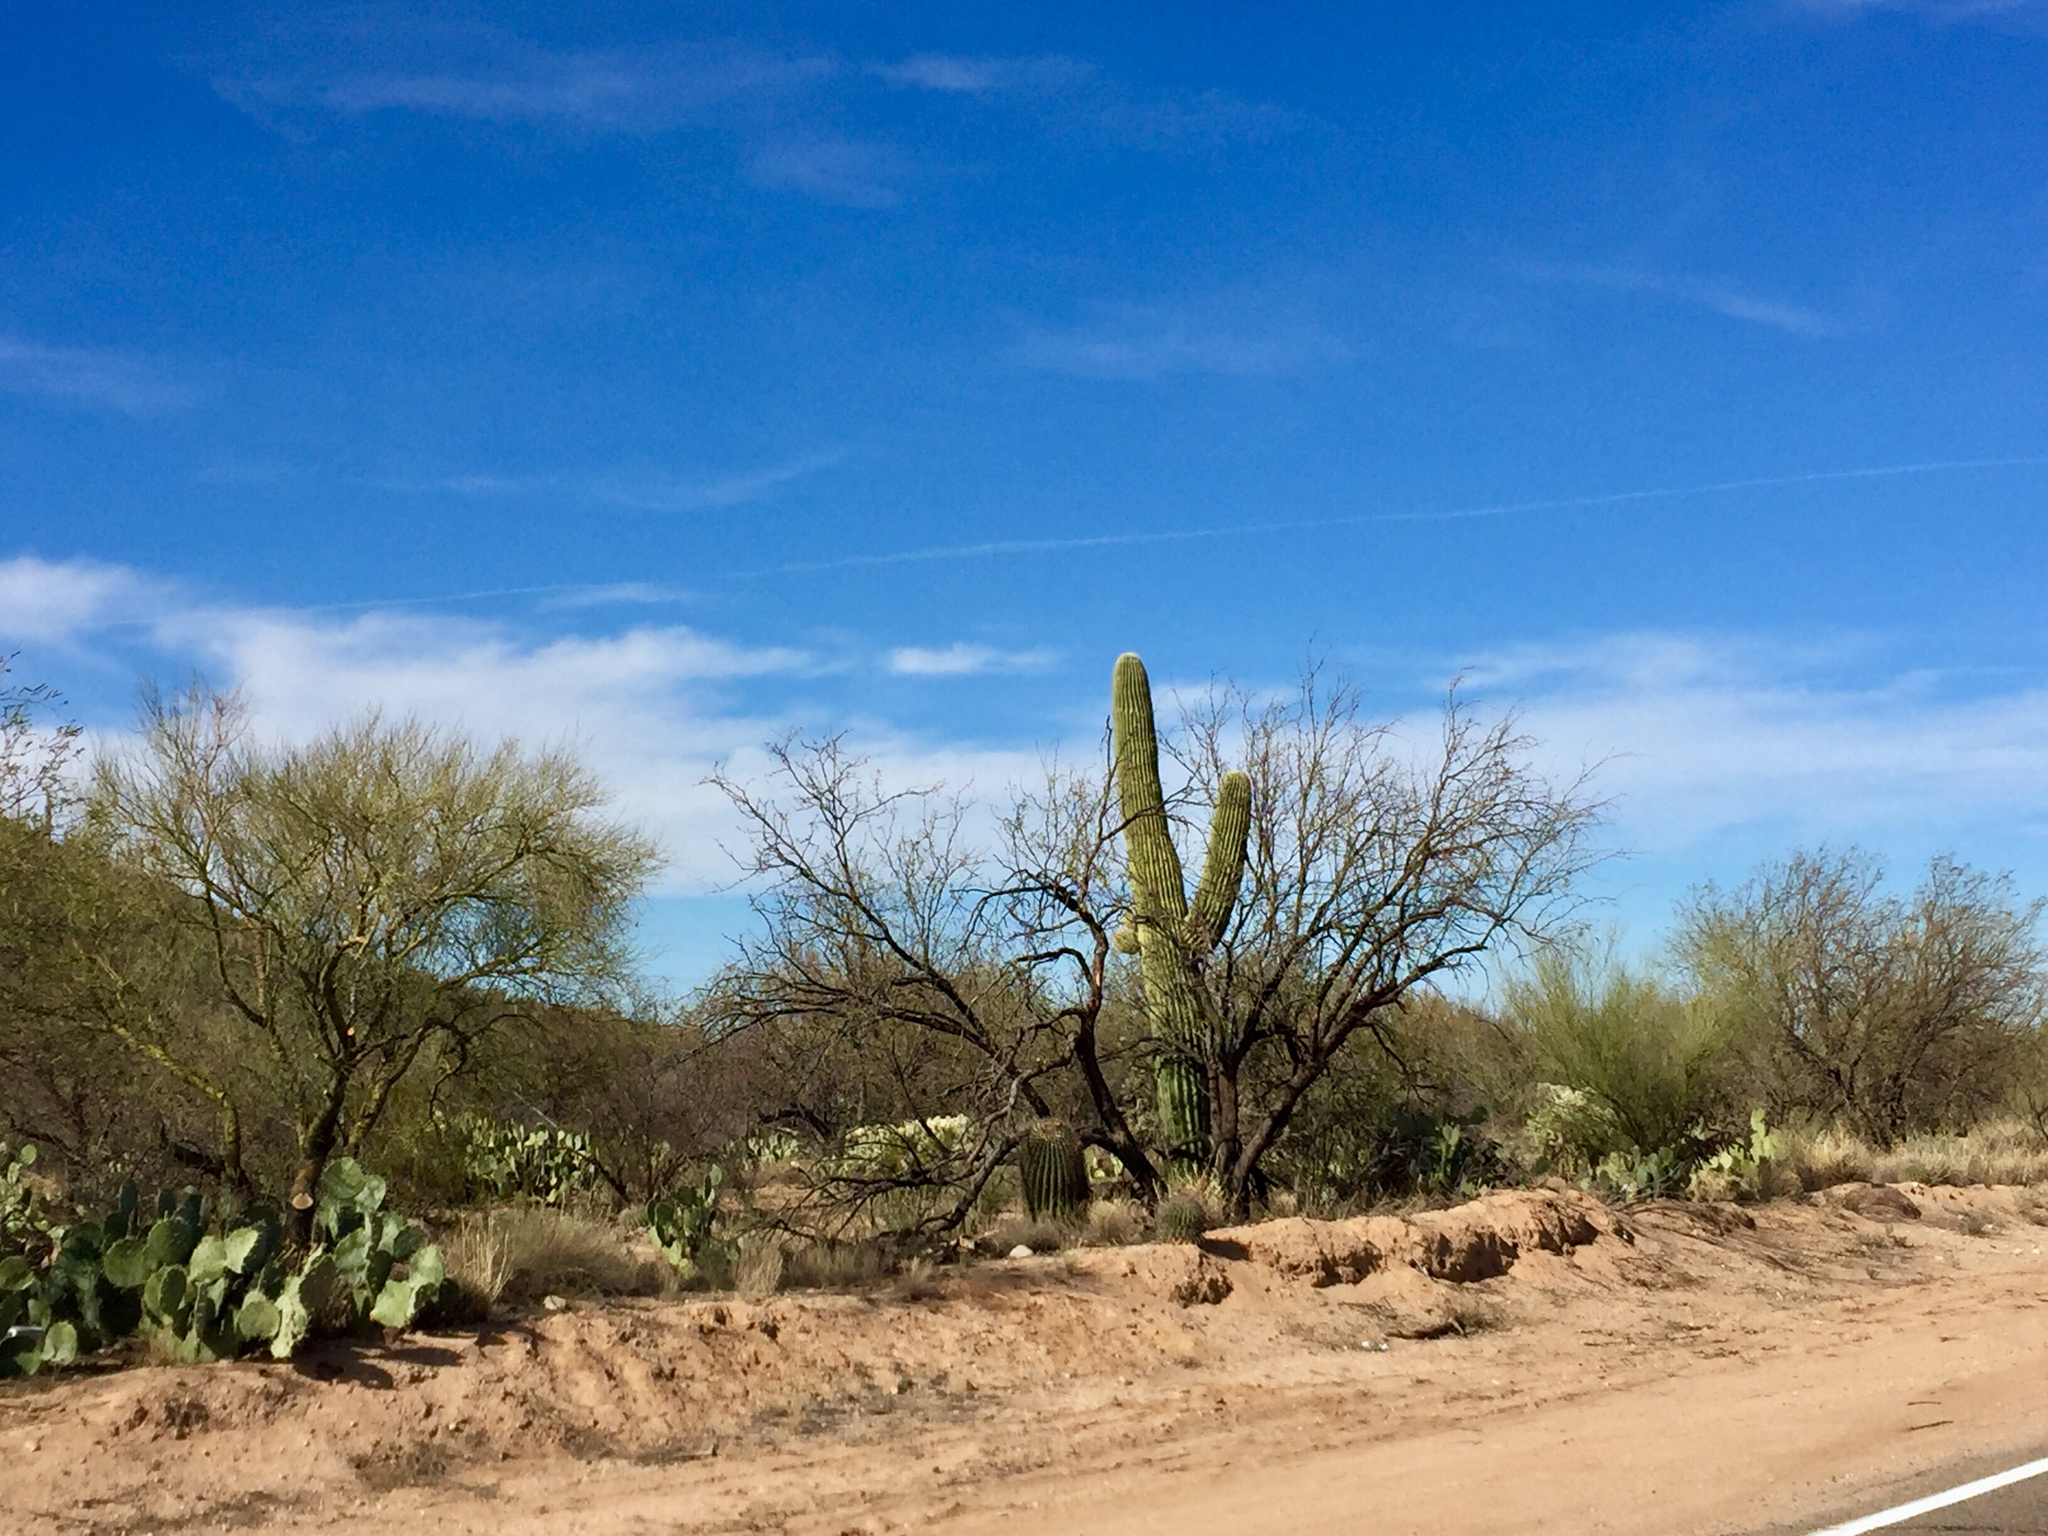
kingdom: Plantae
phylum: Tracheophyta
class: Magnoliopsida
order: Caryophyllales
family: Cactaceae
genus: Carnegiea
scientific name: Carnegiea gigantea
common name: Saguaro
